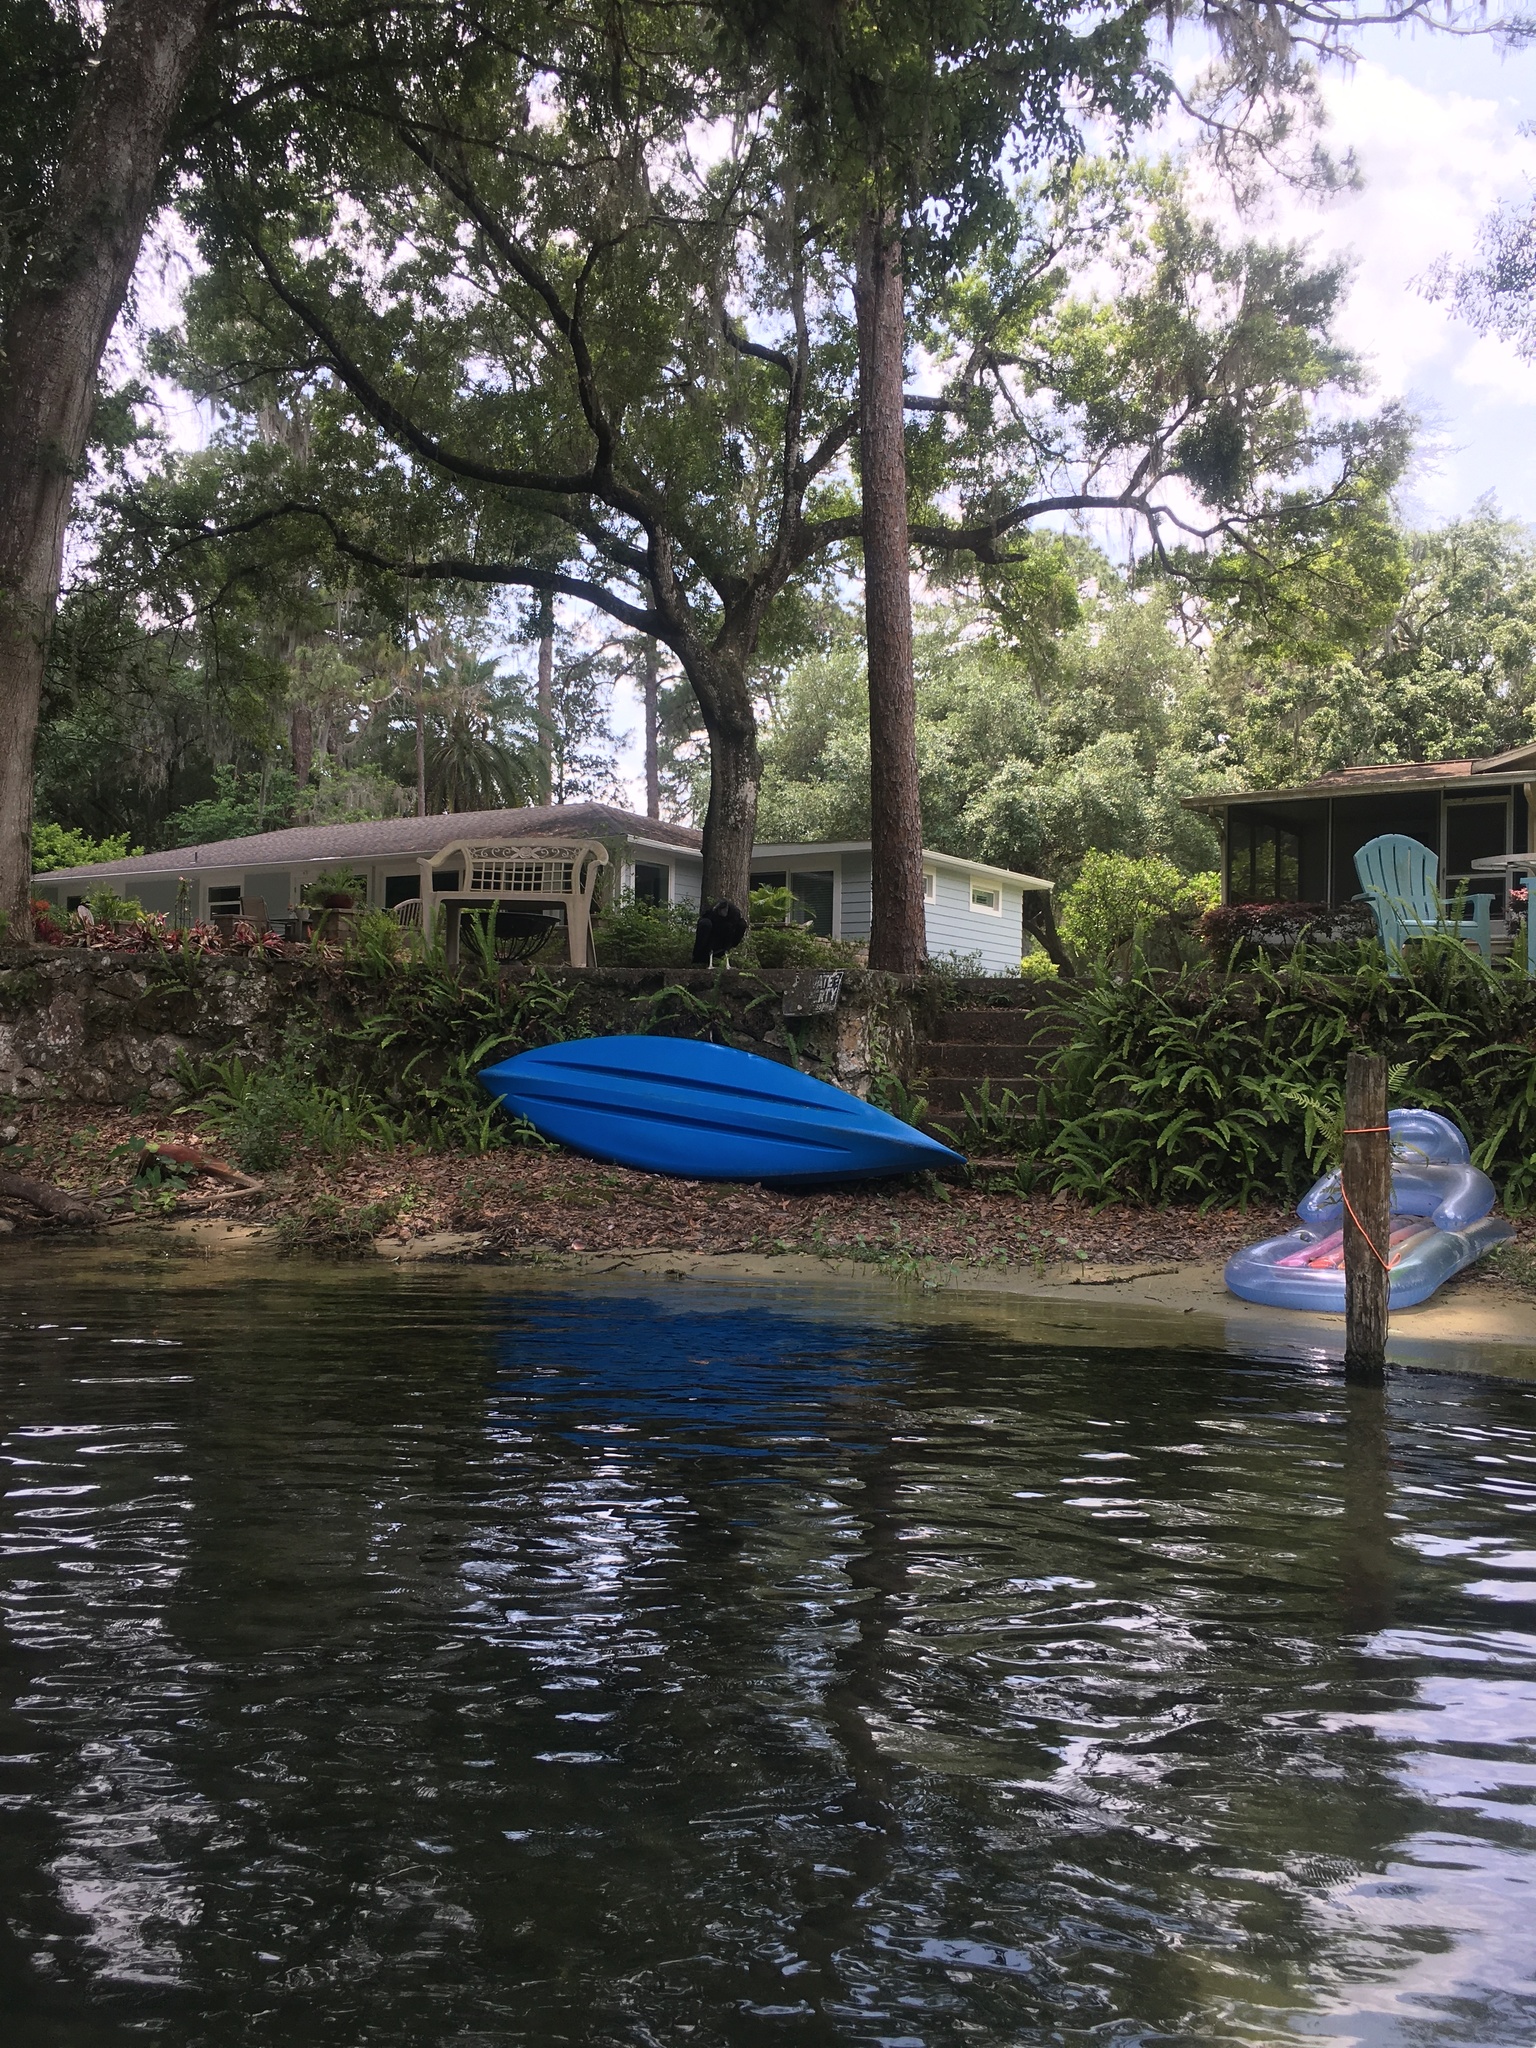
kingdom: Animalia
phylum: Chordata
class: Aves
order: Accipitriformes
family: Cathartidae
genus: Coragyps
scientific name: Coragyps atratus
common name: Black vulture
